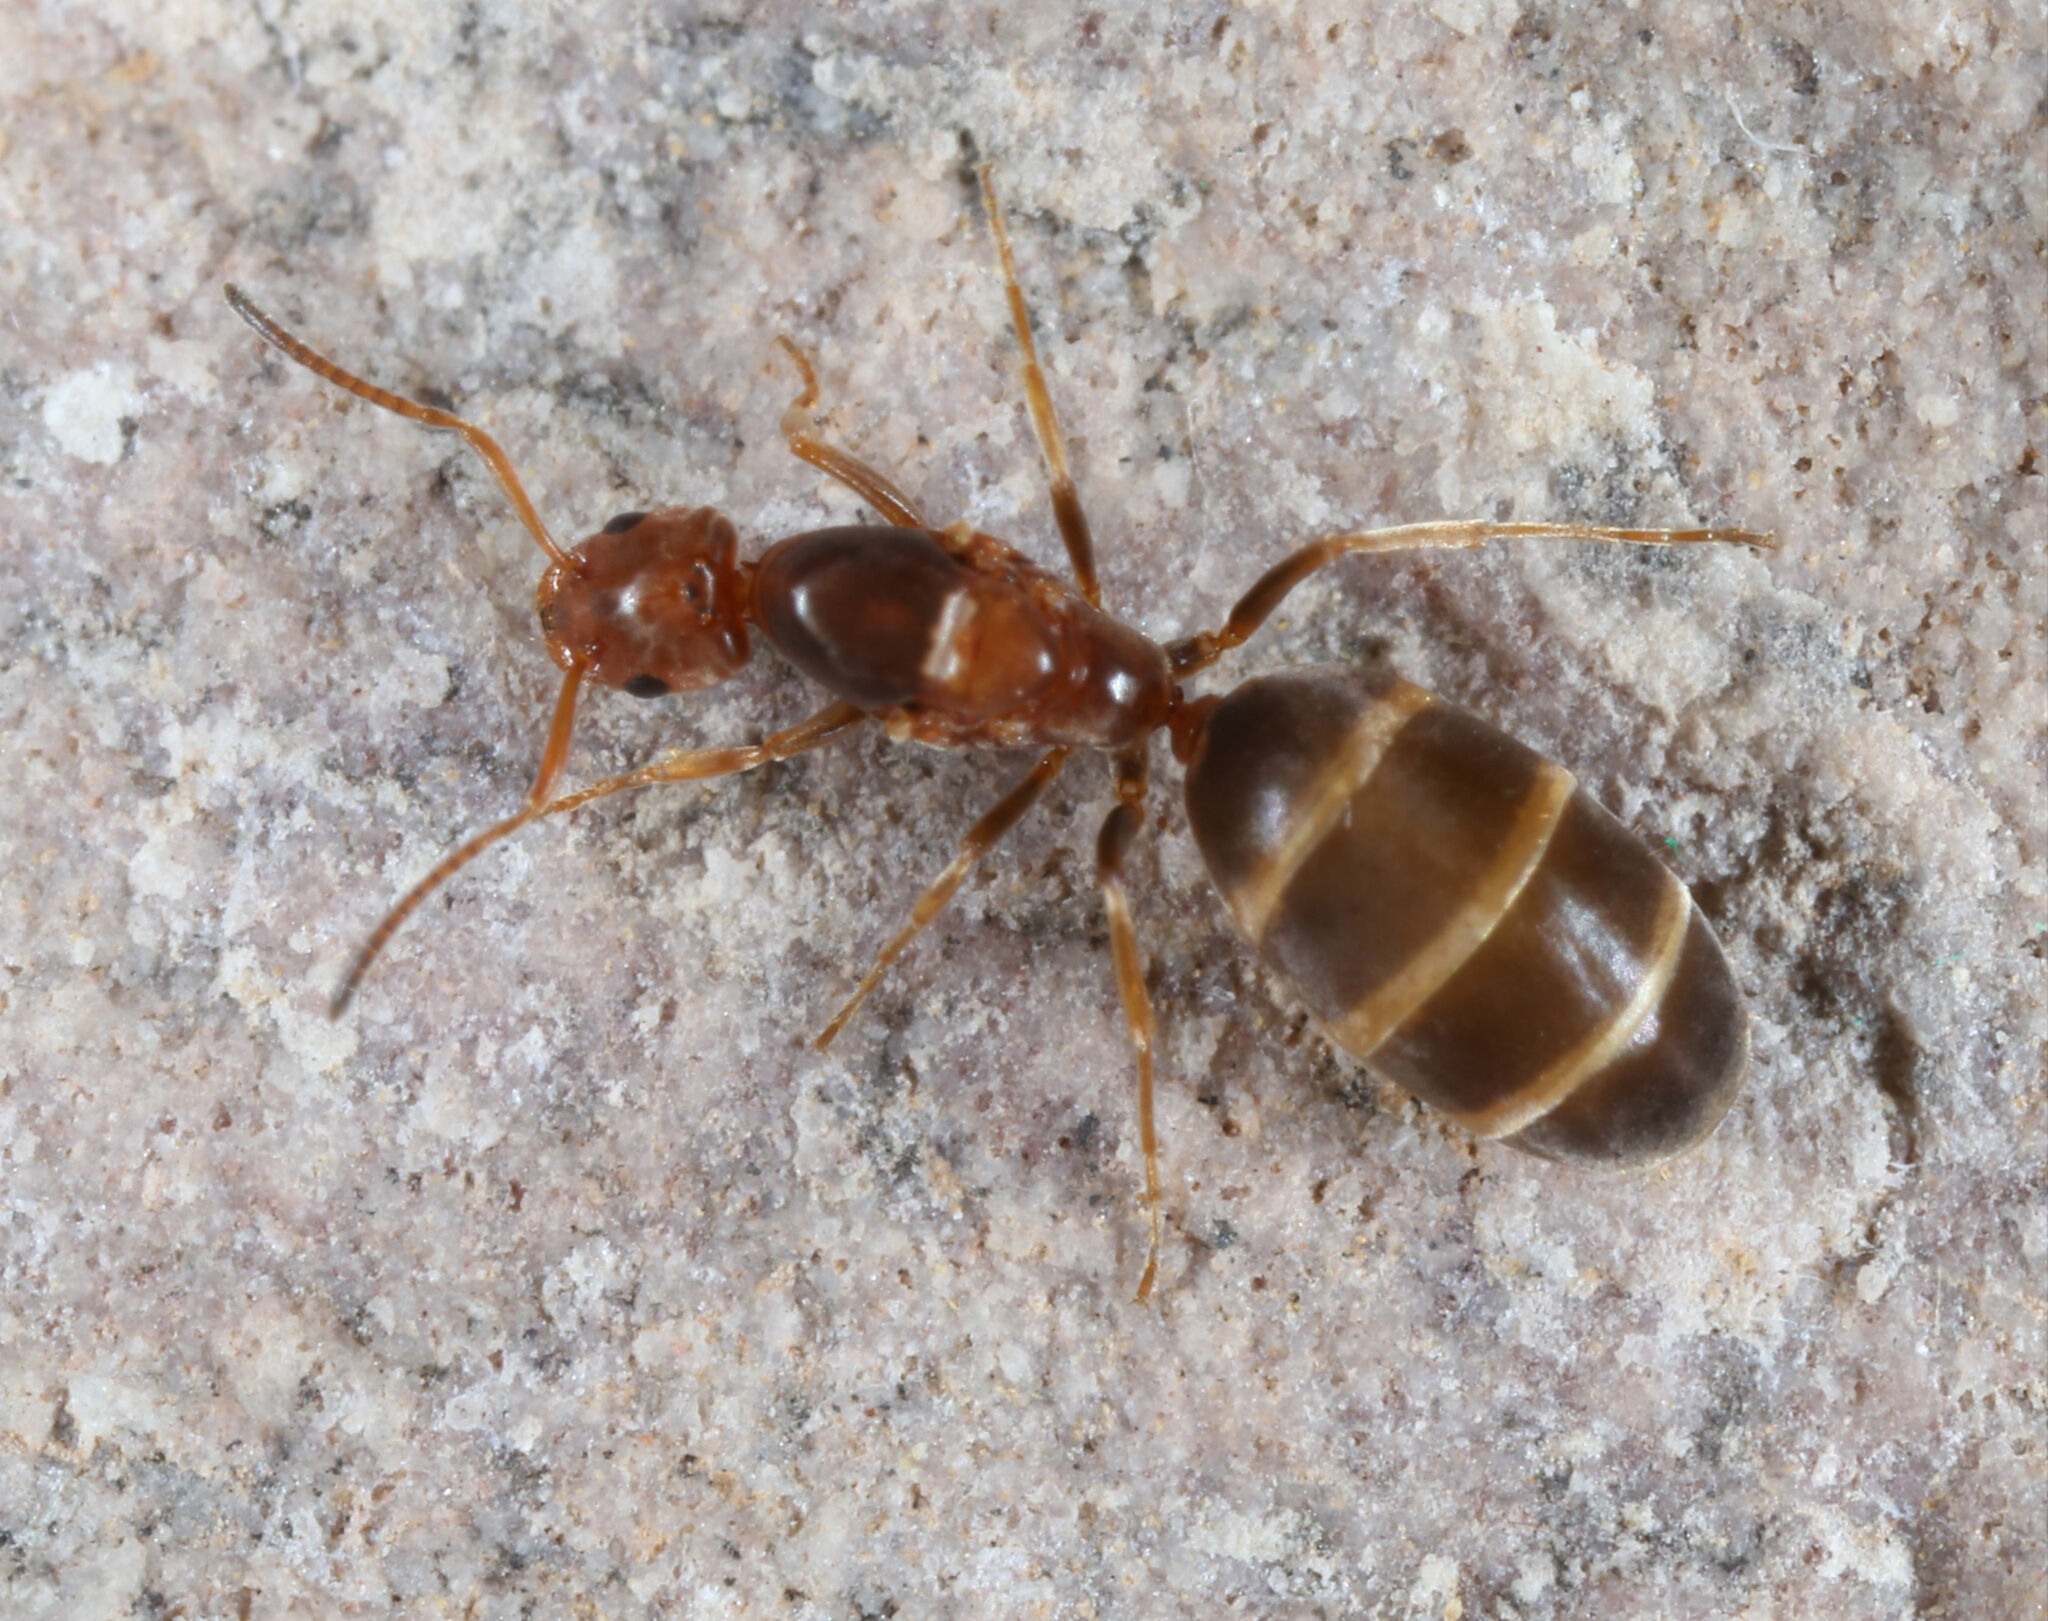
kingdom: Animalia
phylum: Arthropoda
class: Insecta
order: Hymenoptera
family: Formicidae
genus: Forelius
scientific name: Forelius pruinosus
